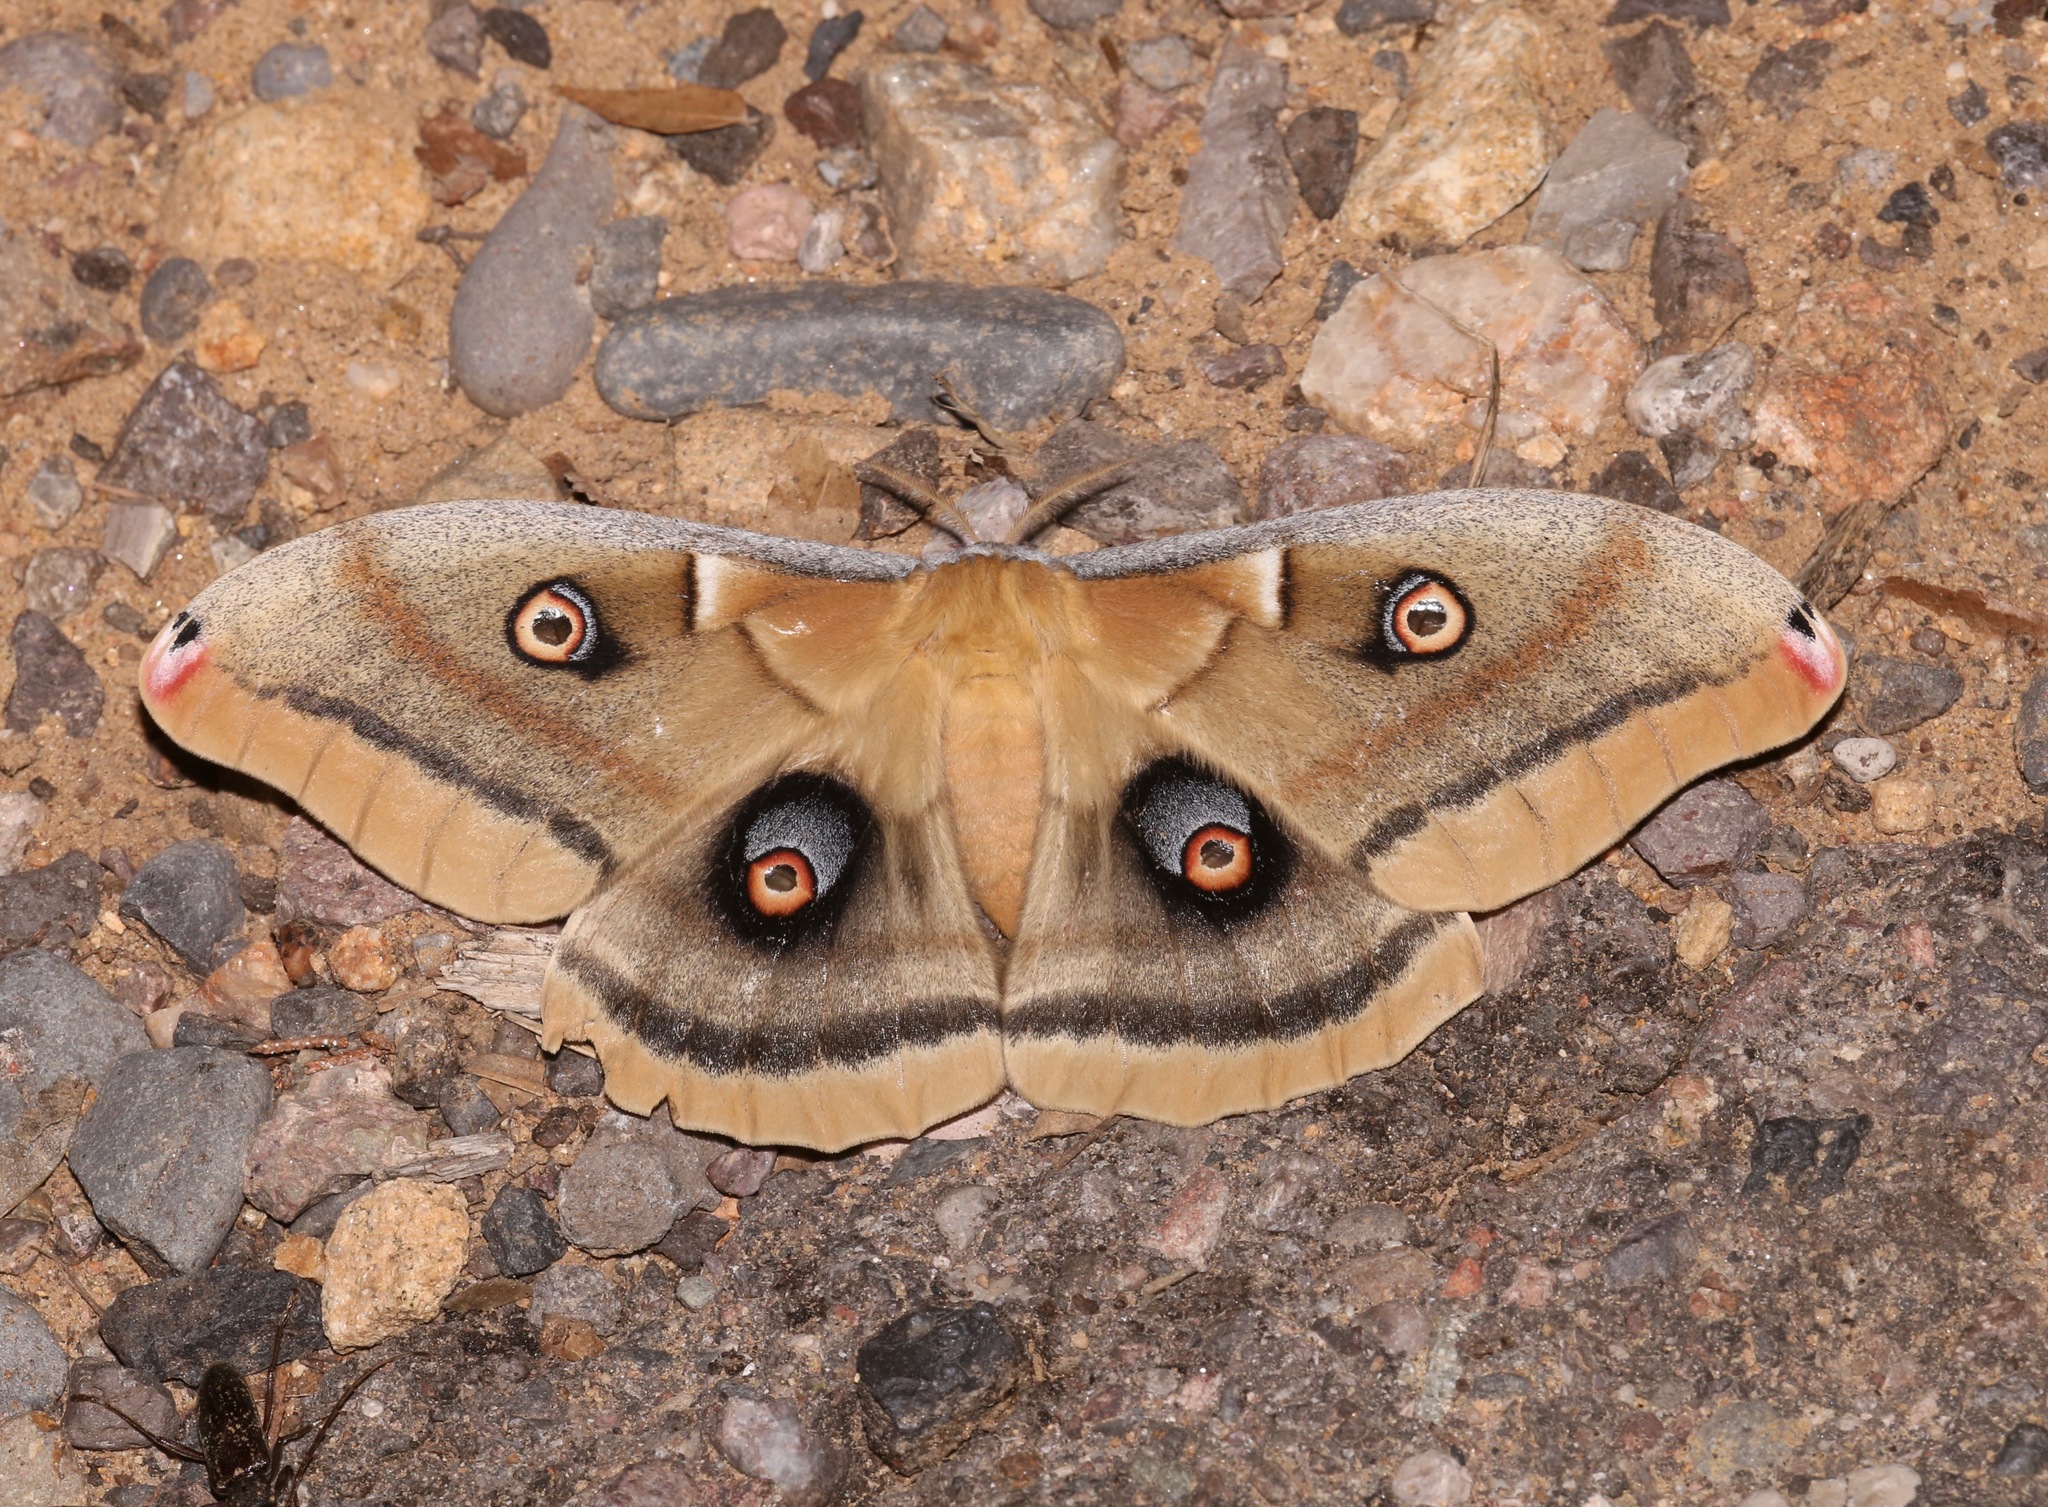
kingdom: Animalia
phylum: Arthropoda
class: Insecta
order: Lepidoptera
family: Saturniidae
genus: Antheraea
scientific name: Antheraea oculea
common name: Arizona polyphemus moth
